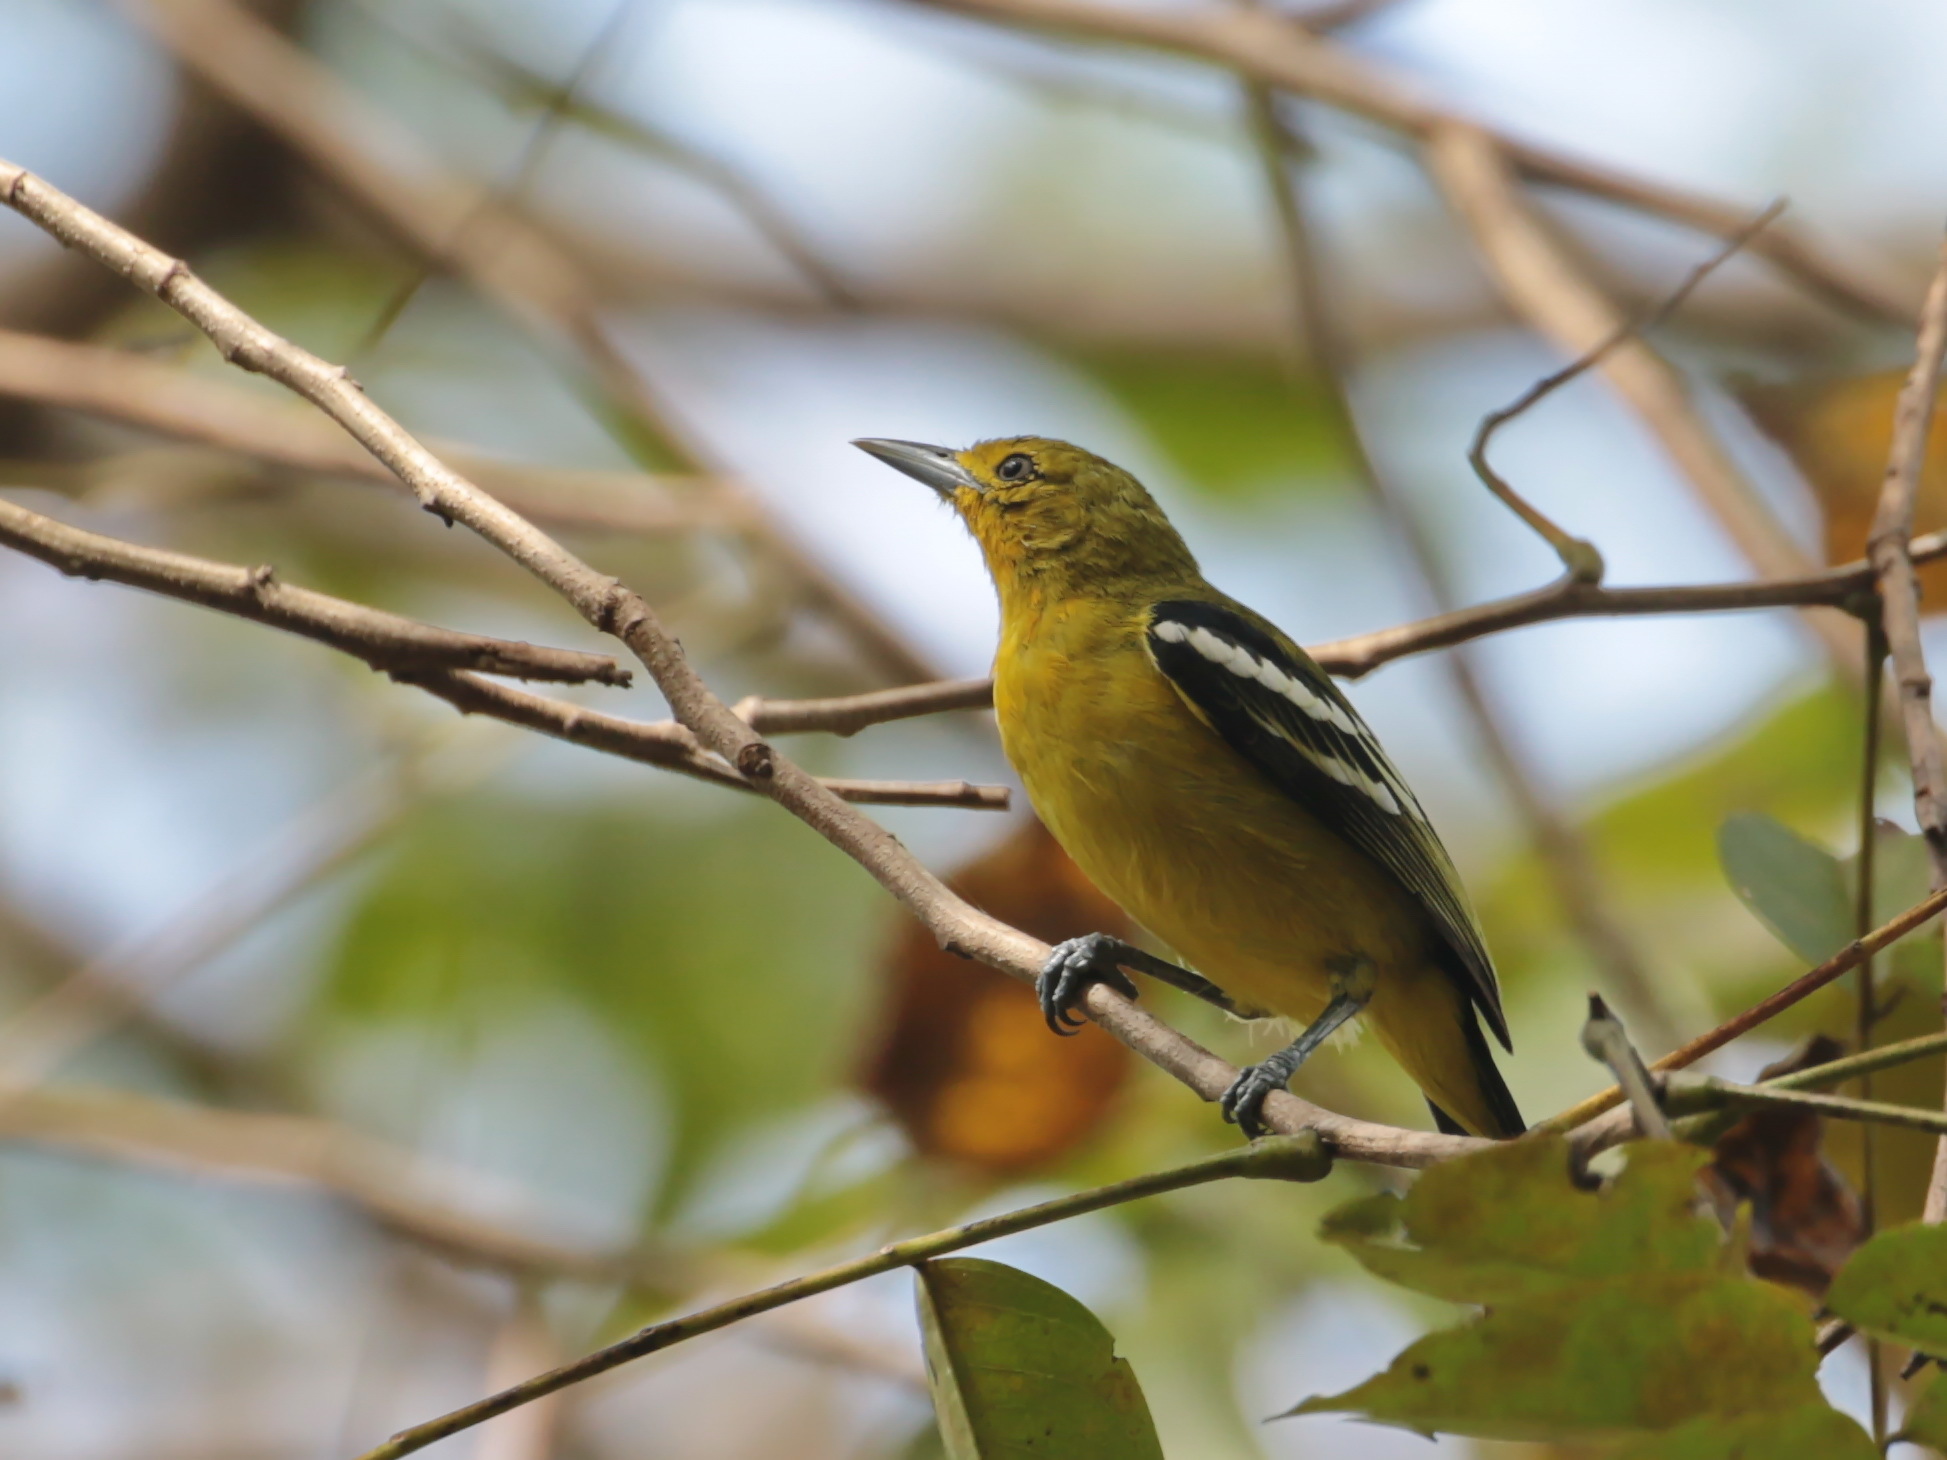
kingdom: Animalia
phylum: Chordata
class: Aves
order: Passeriformes
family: Aegithinidae
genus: Aegithina
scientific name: Aegithina tiphia
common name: Common iora
